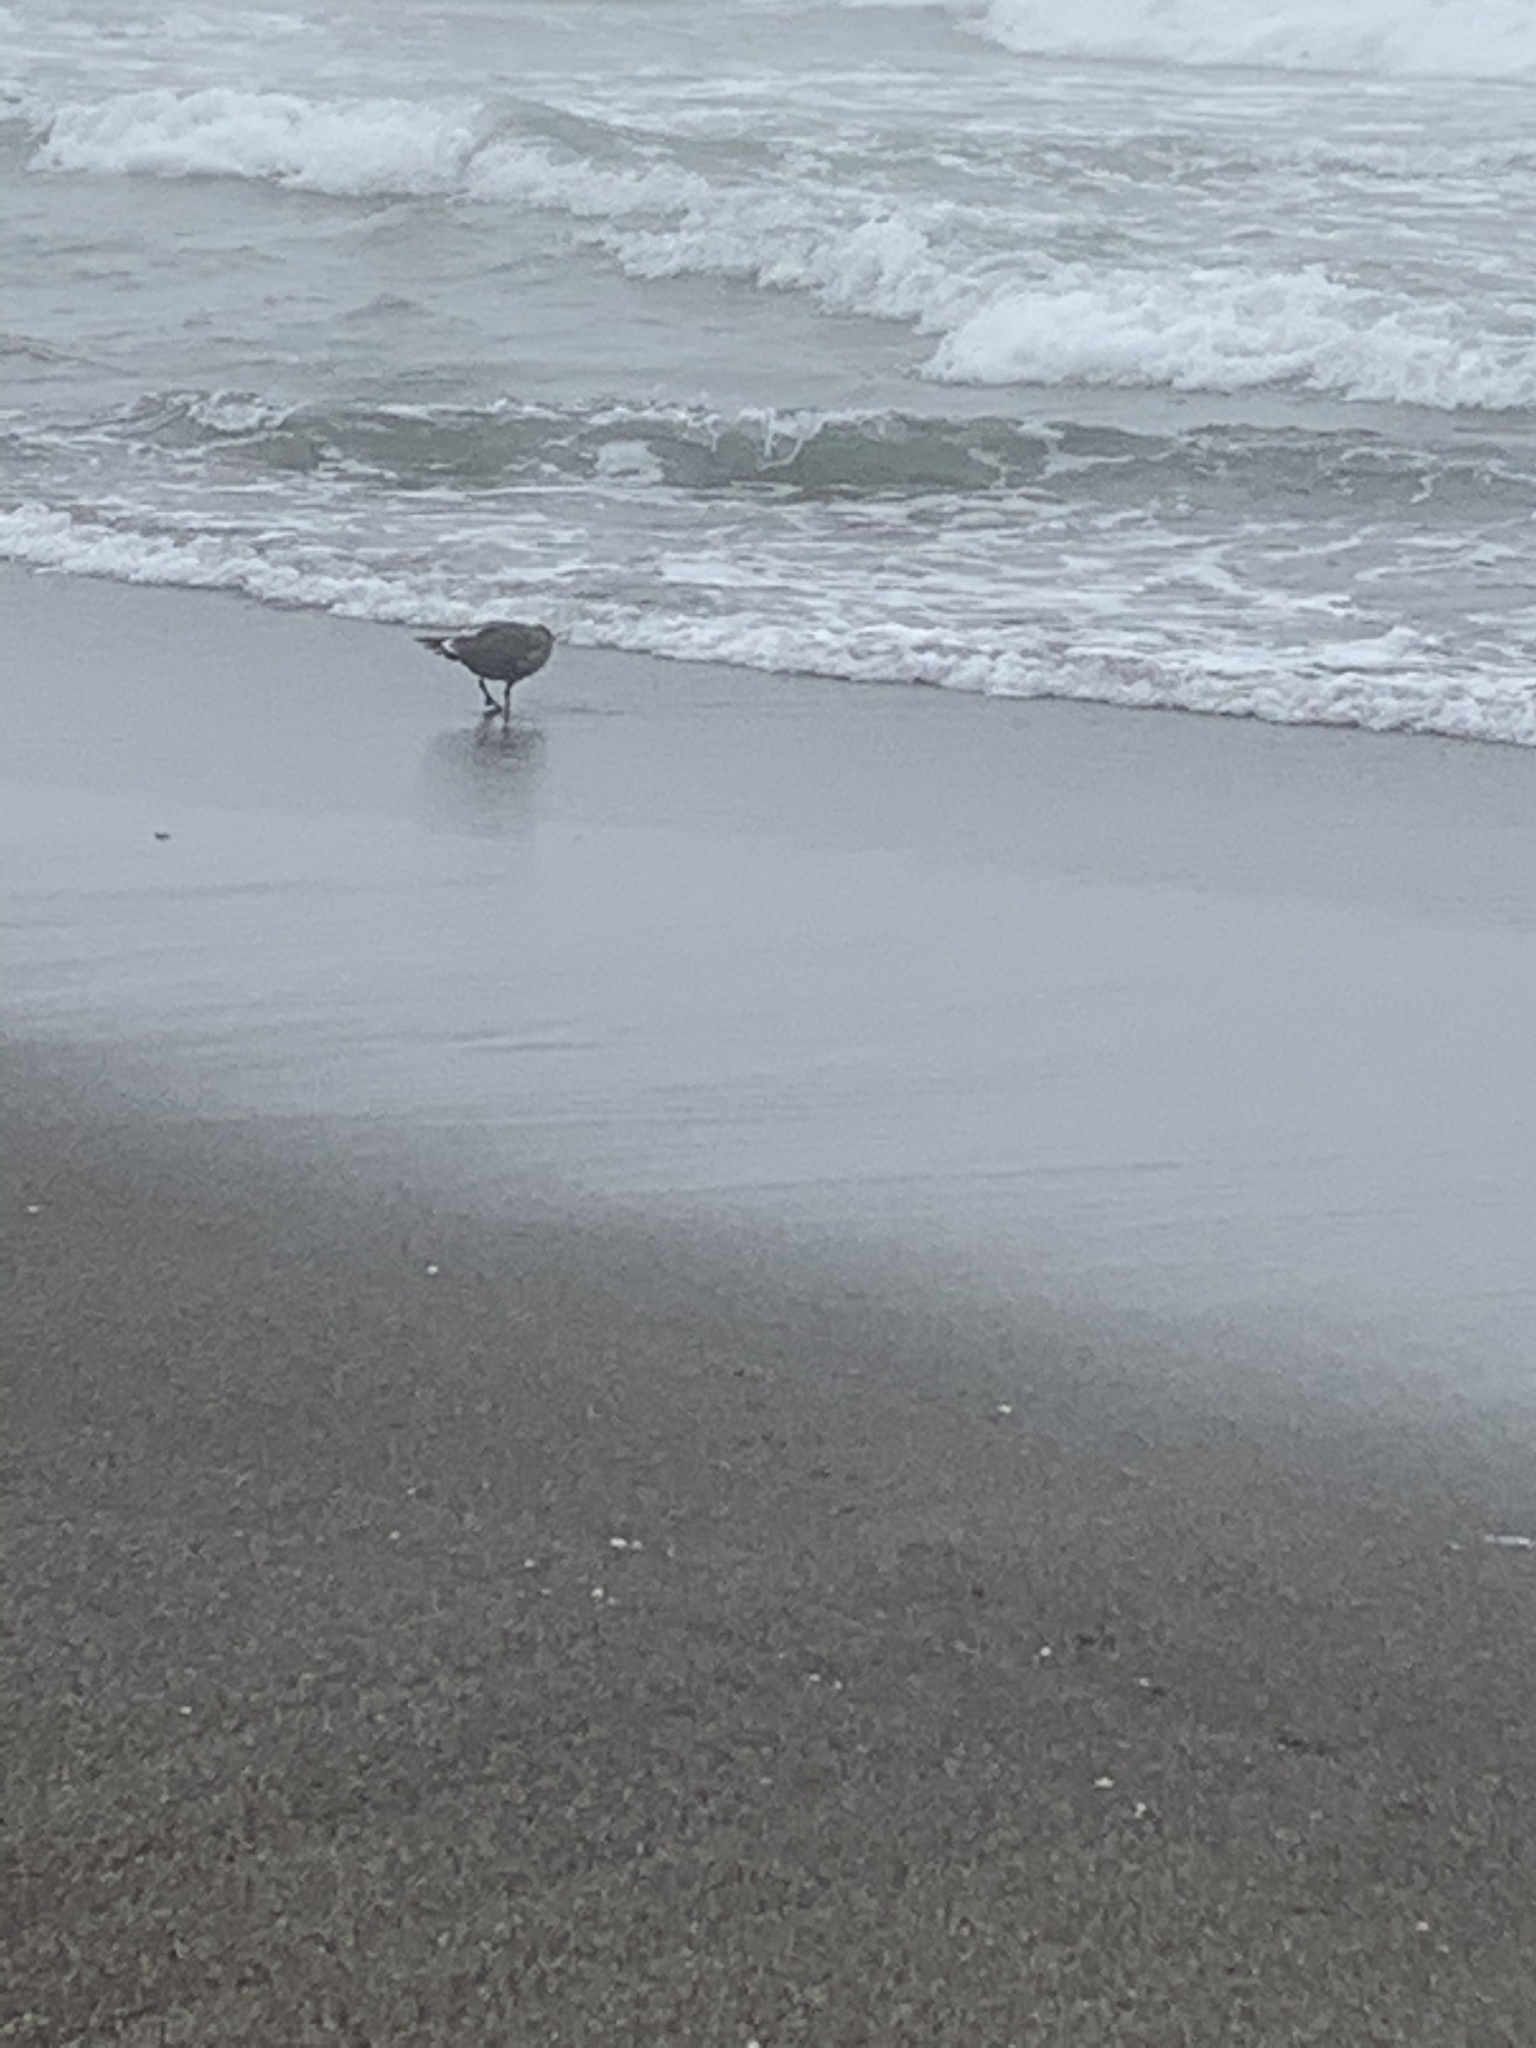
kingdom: Animalia
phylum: Chordata
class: Aves
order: Charadriiformes
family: Laridae
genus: Larus
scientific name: Larus heermanni
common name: Heermann's gull
